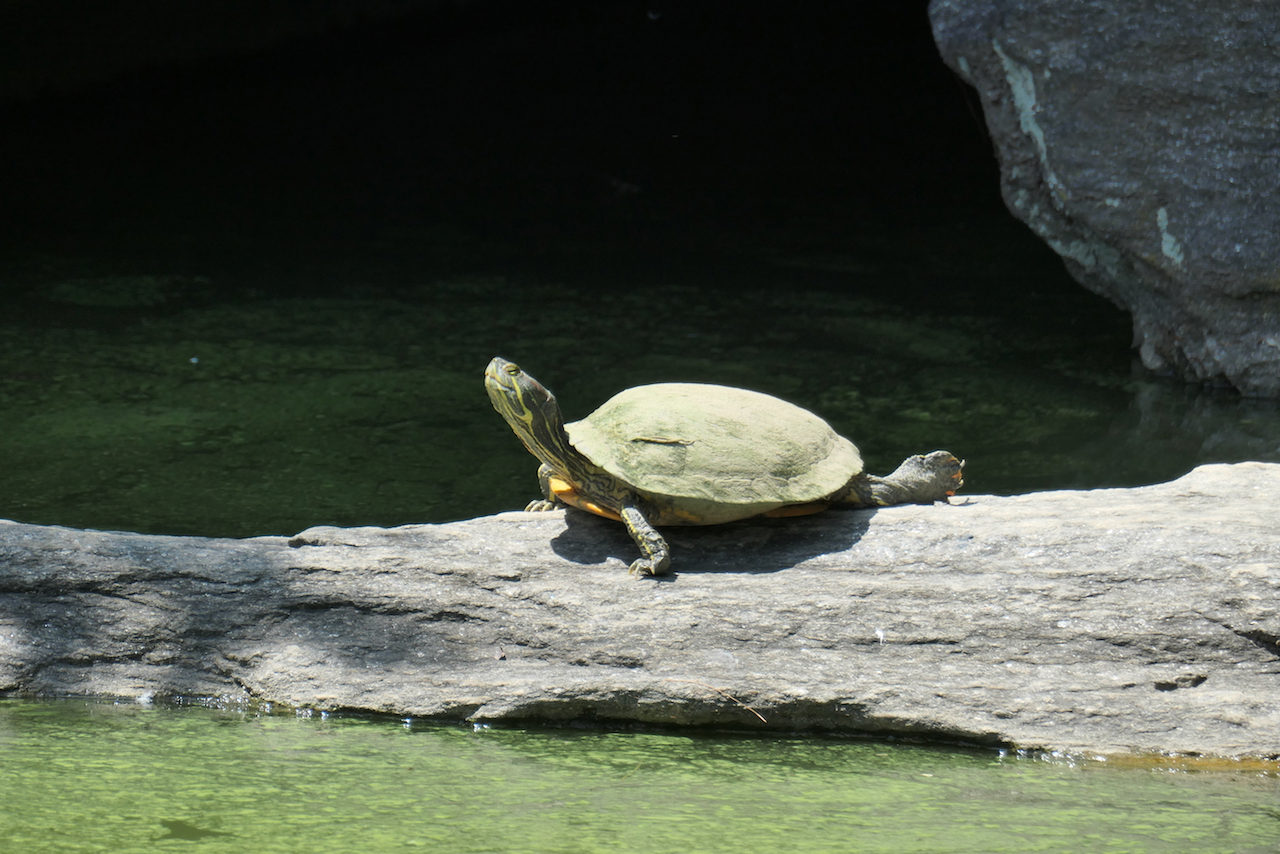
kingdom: Animalia
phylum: Chordata
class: Testudines
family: Emydidae
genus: Trachemys
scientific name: Trachemys scripta
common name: Slider
